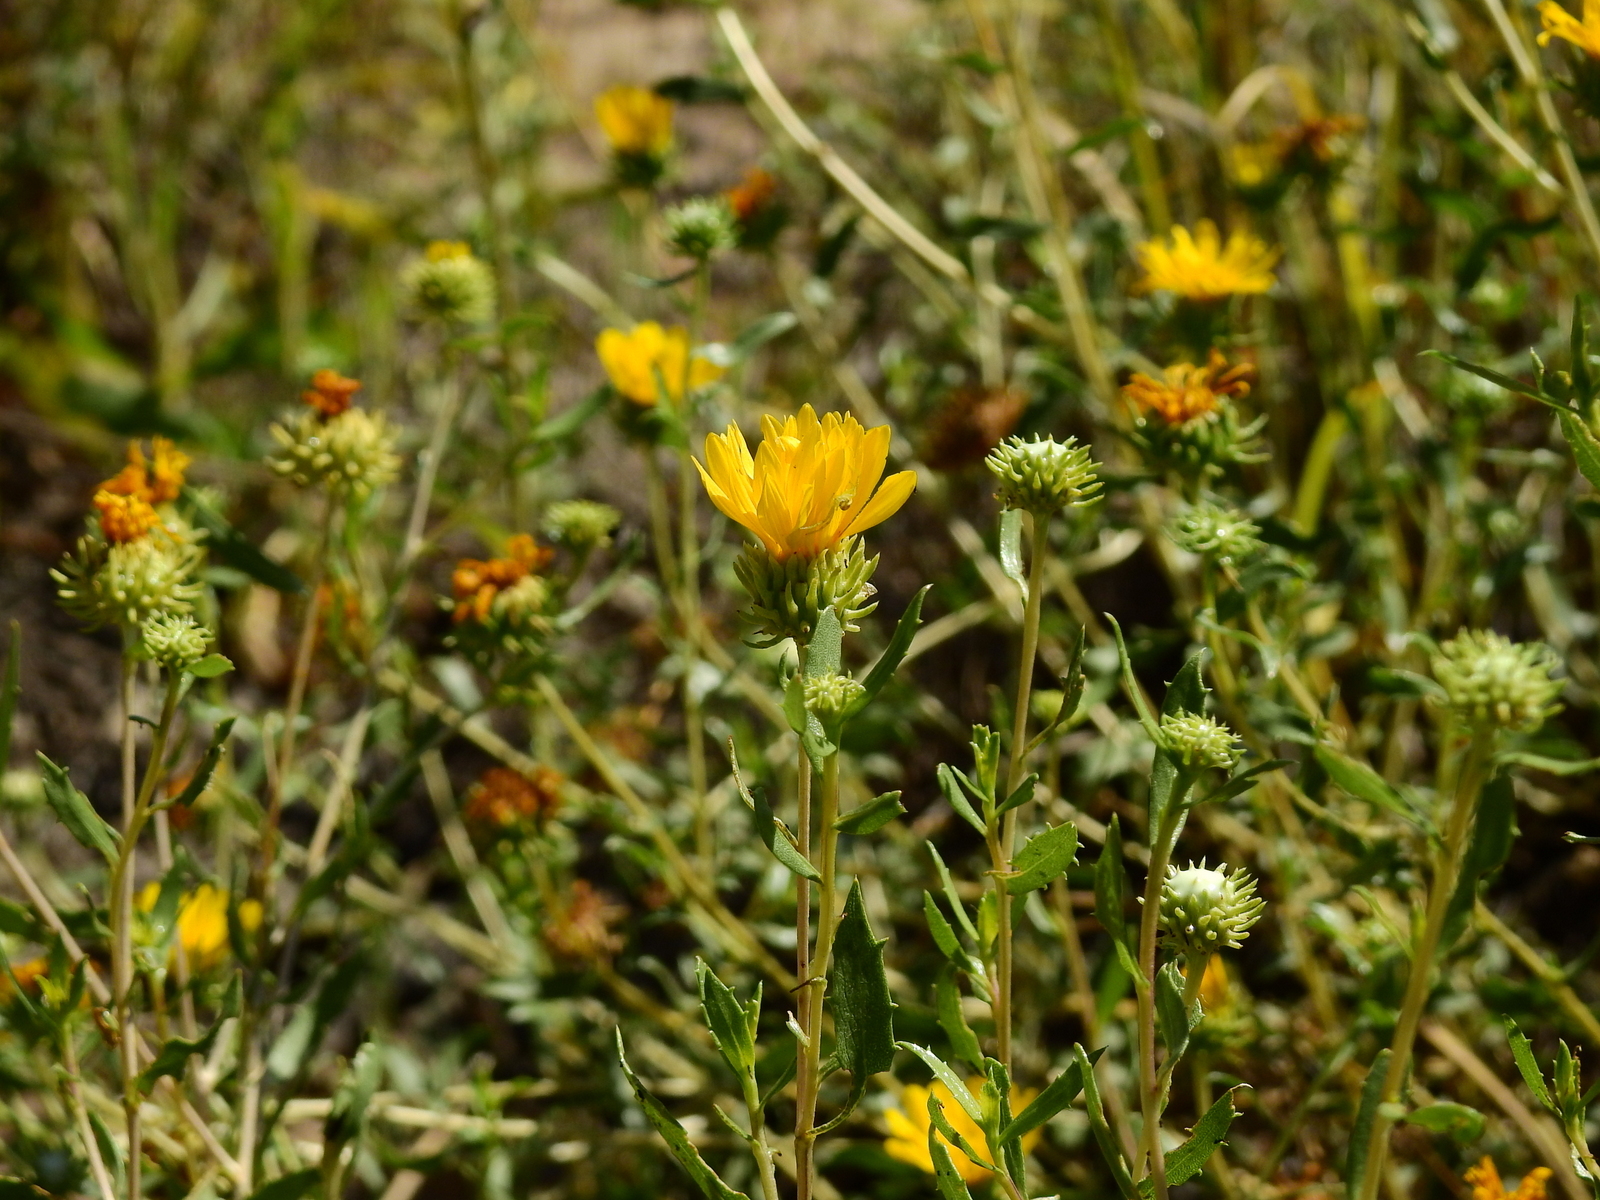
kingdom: Plantae
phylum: Tracheophyta
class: Magnoliopsida
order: Asterales
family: Asteraceae
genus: Grindelia
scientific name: Grindelia pulchella
